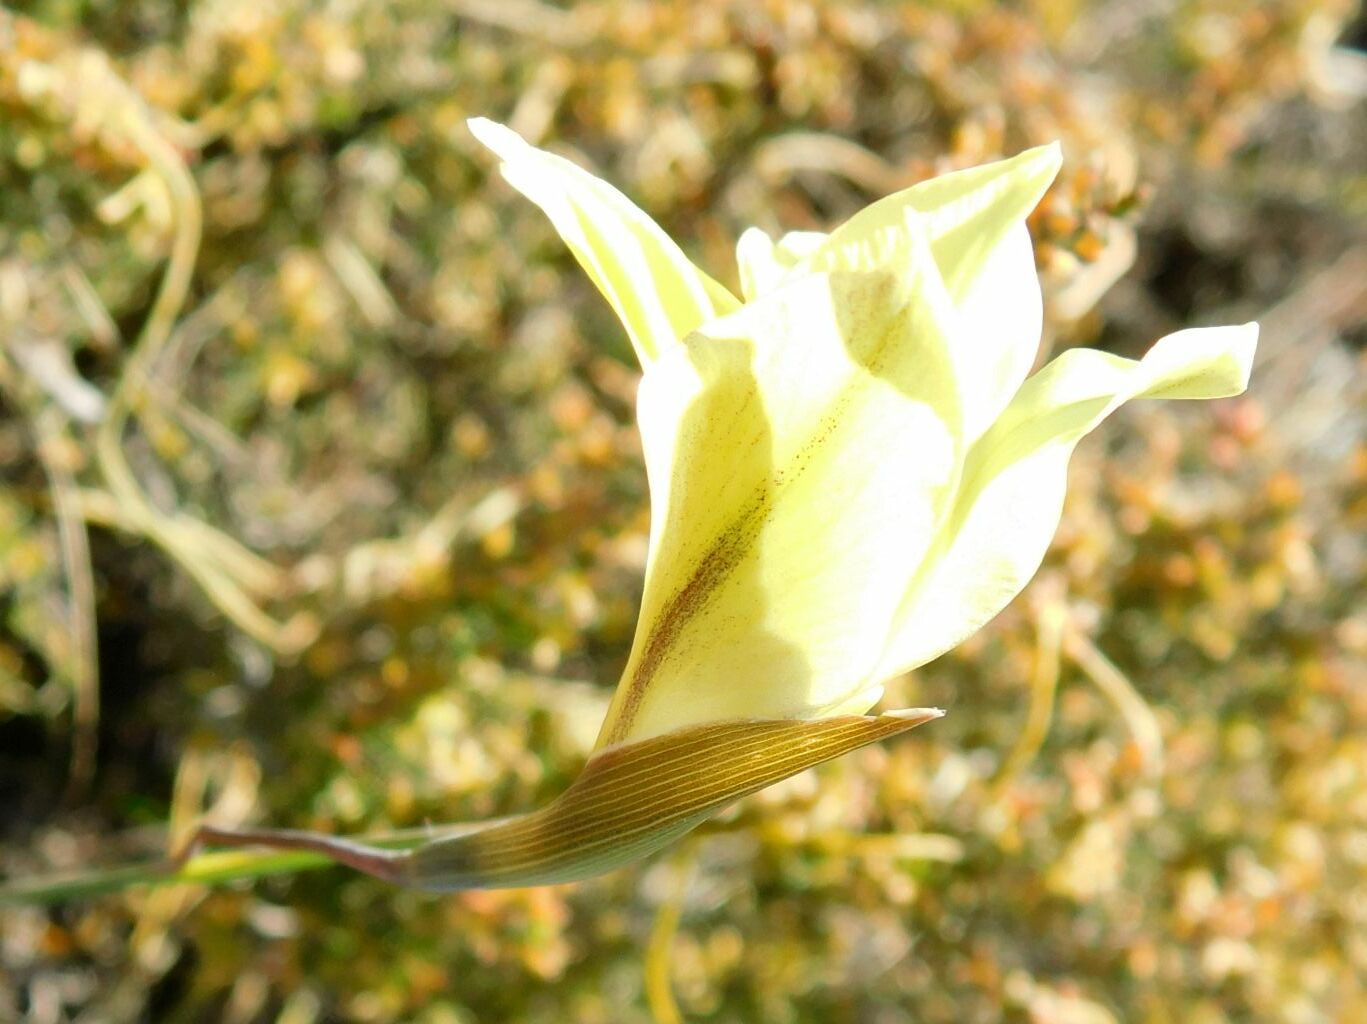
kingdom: Plantae
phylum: Tracheophyta
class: Liliopsida
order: Asparagales
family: Iridaceae
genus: Gladiolus
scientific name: Gladiolus carinatus
